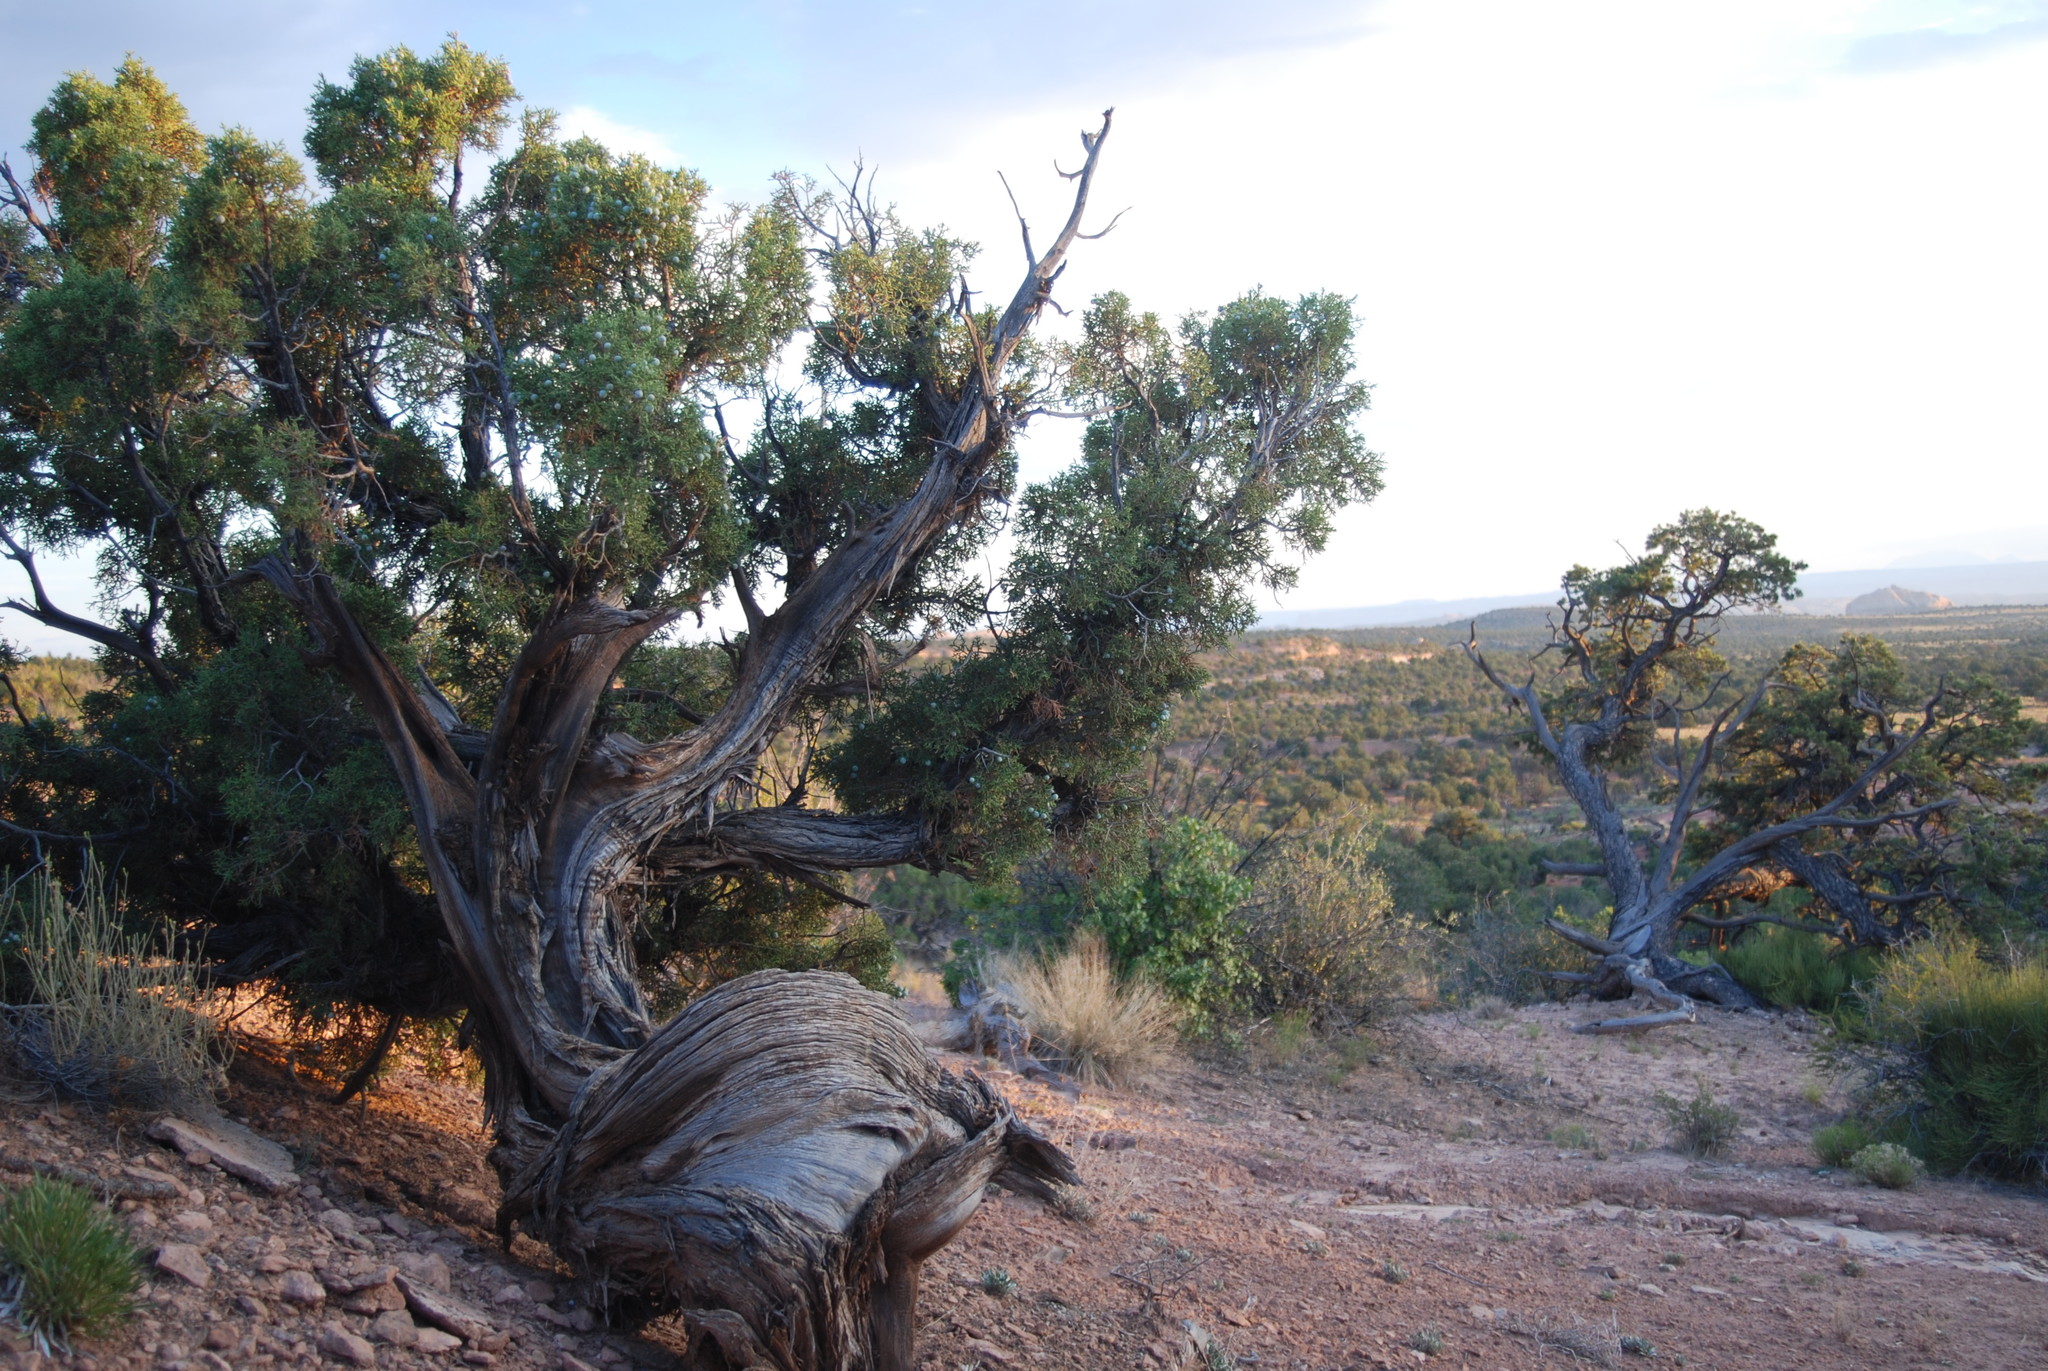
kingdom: Plantae
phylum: Tracheophyta
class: Pinopsida
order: Pinales
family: Cupressaceae
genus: Juniperus
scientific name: Juniperus osteosperma
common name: Utah juniper
